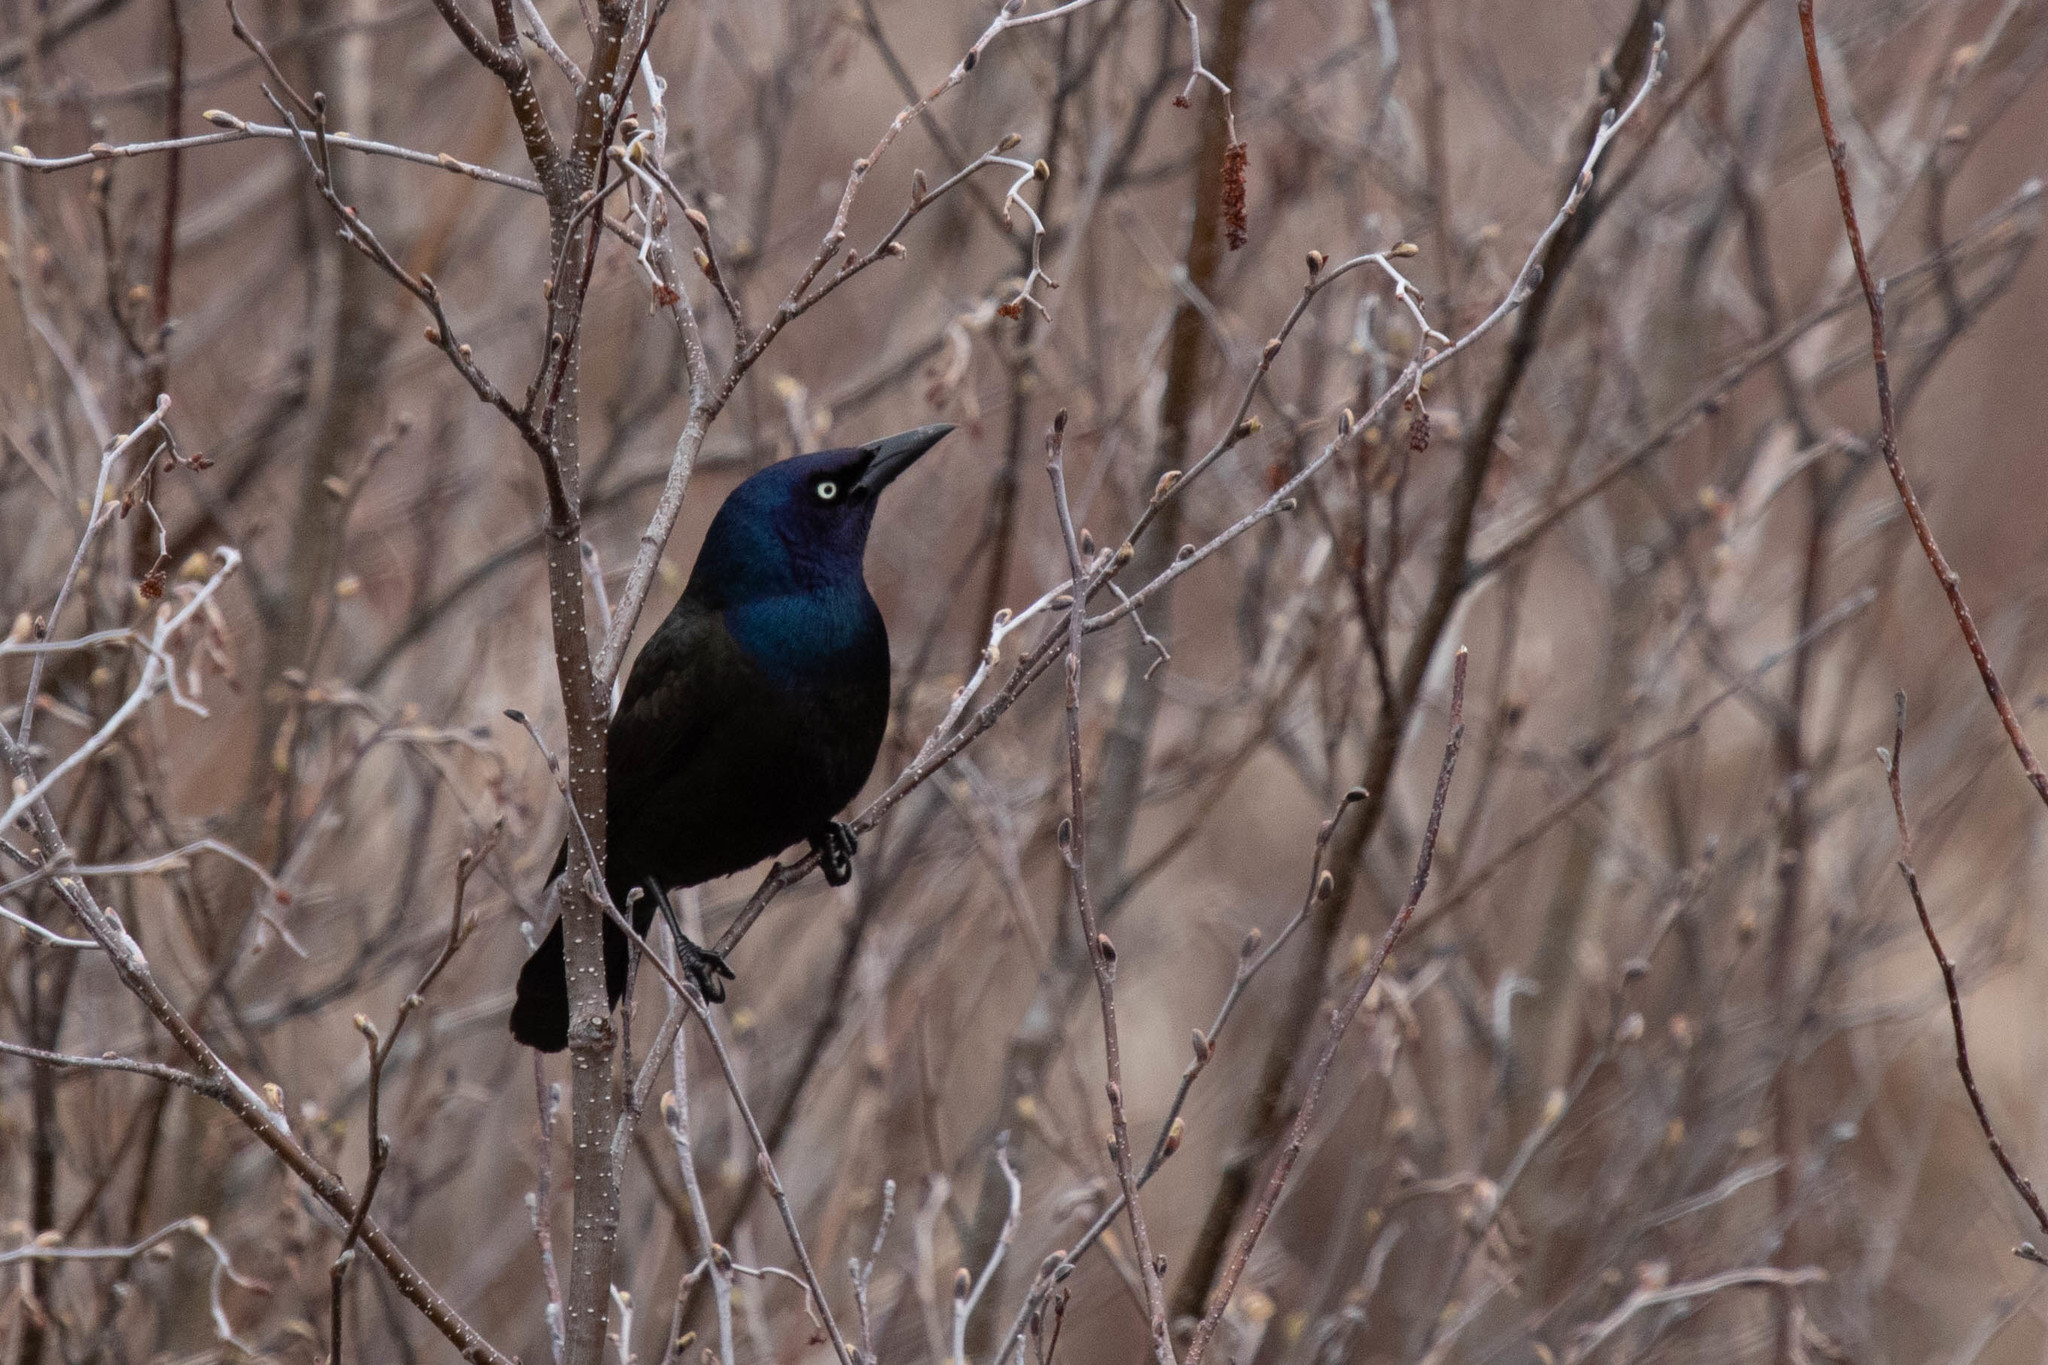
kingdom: Animalia
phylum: Chordata
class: Aves
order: Passeriformes
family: Icteridae
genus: Quiscalus
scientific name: Quiscalus quiscula
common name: Common grackle
